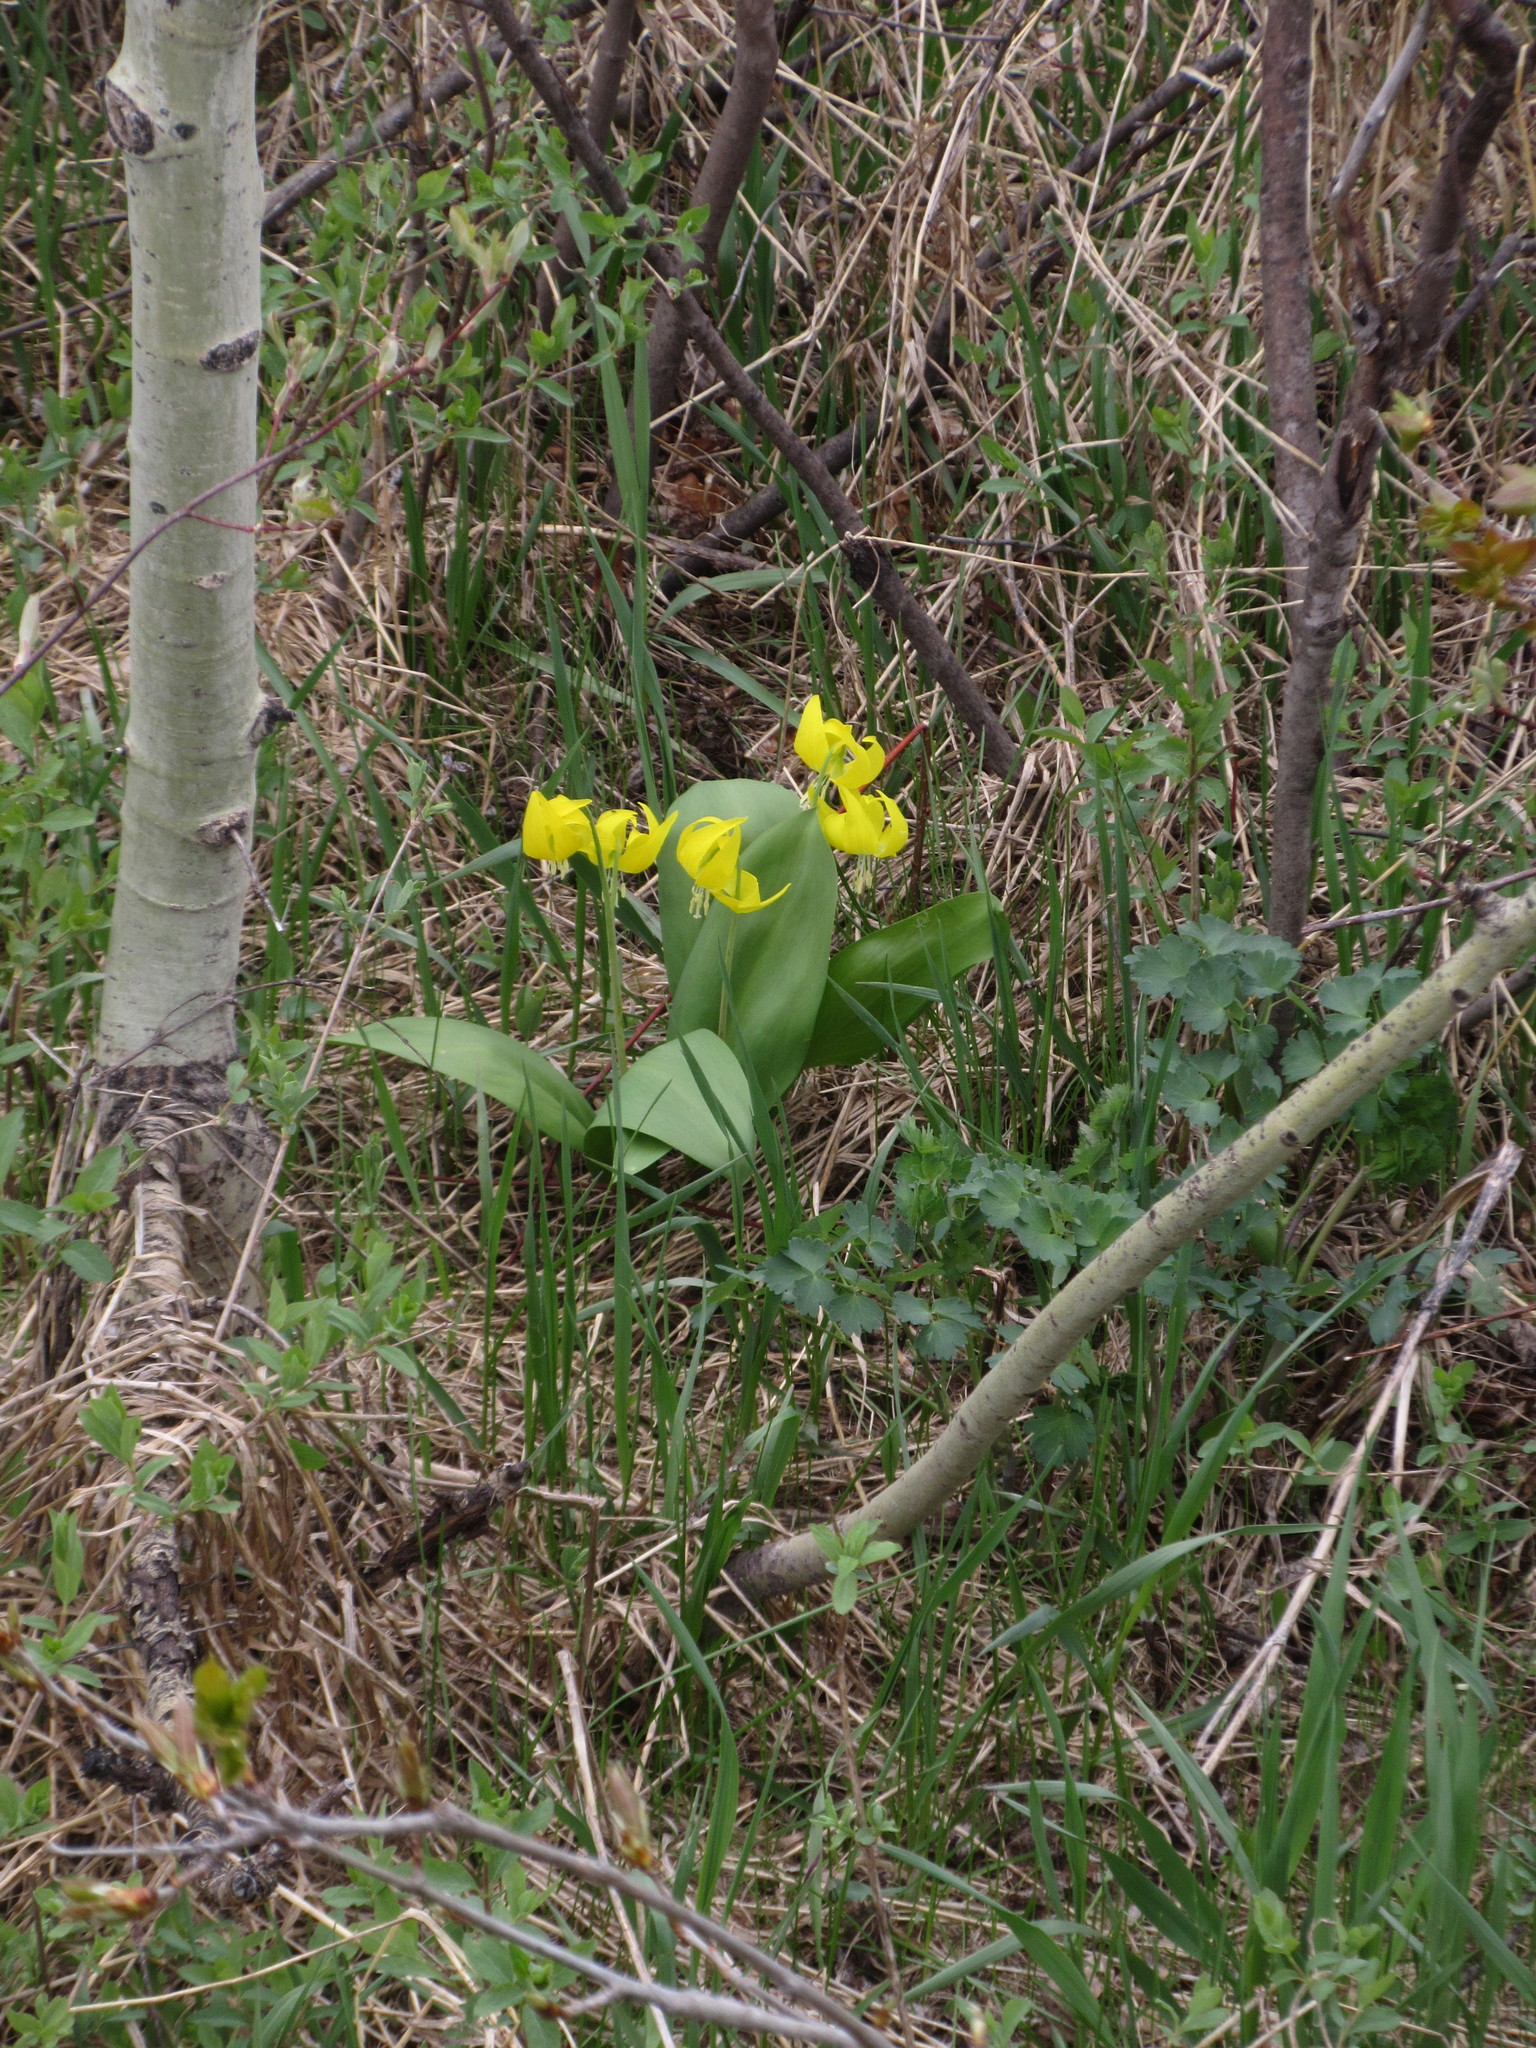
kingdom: Plantae
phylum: Tracheophyta
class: Liliopsida
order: Liliales
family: Liliaceae
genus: Erythronium
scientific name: Erythronium grandiflorum
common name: Avalanche-lily
